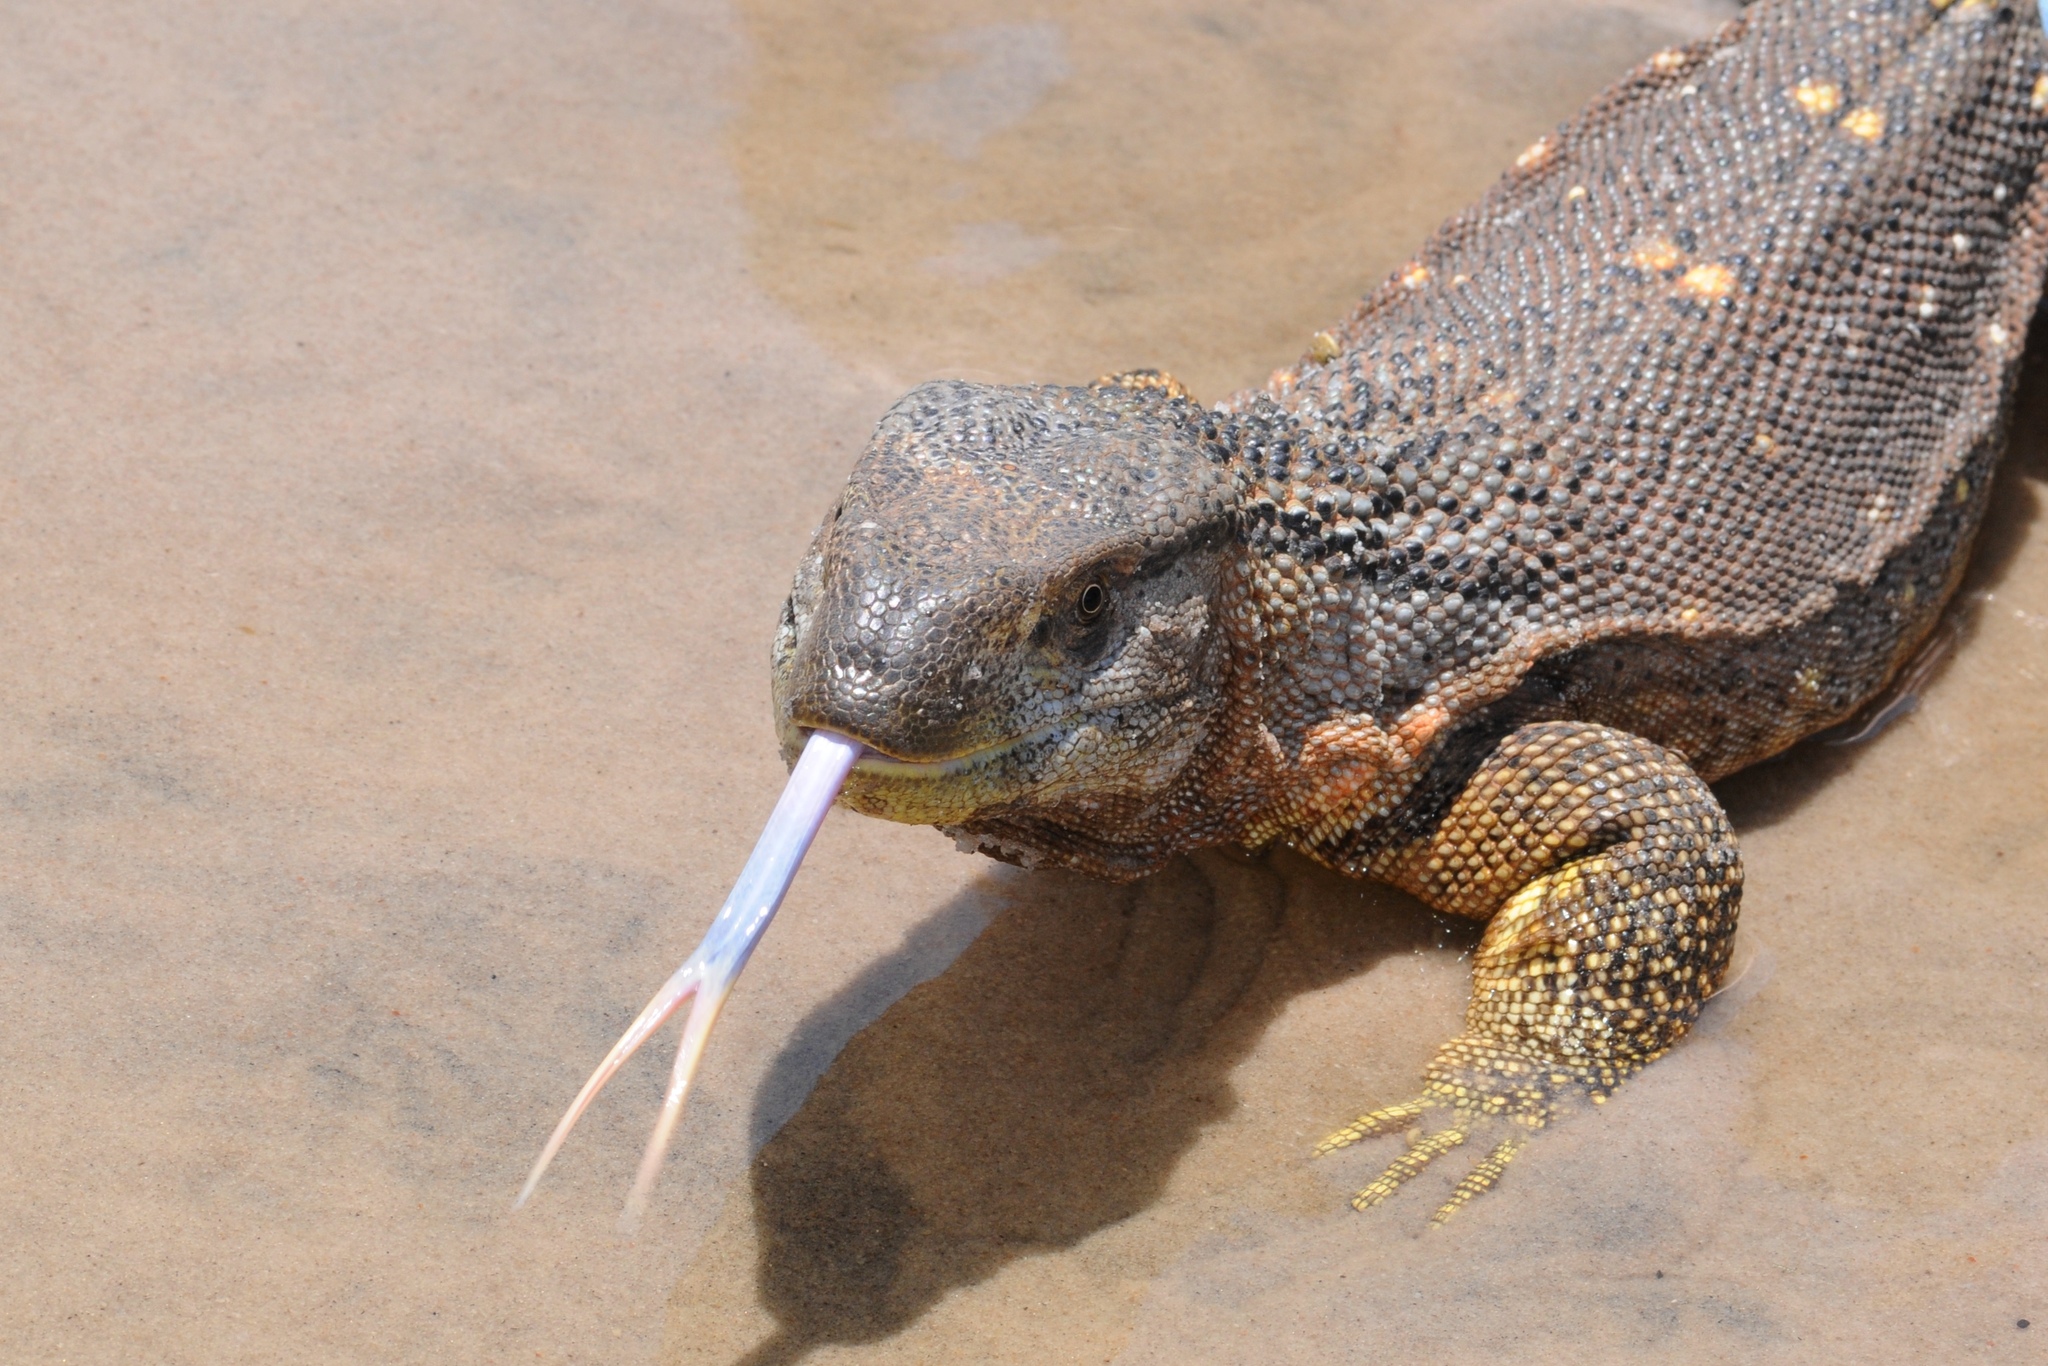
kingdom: Animalia
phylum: Chordata
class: Squamata
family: Varanidae
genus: Varanus
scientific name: Varanus albigularis
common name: White-throated monitor
